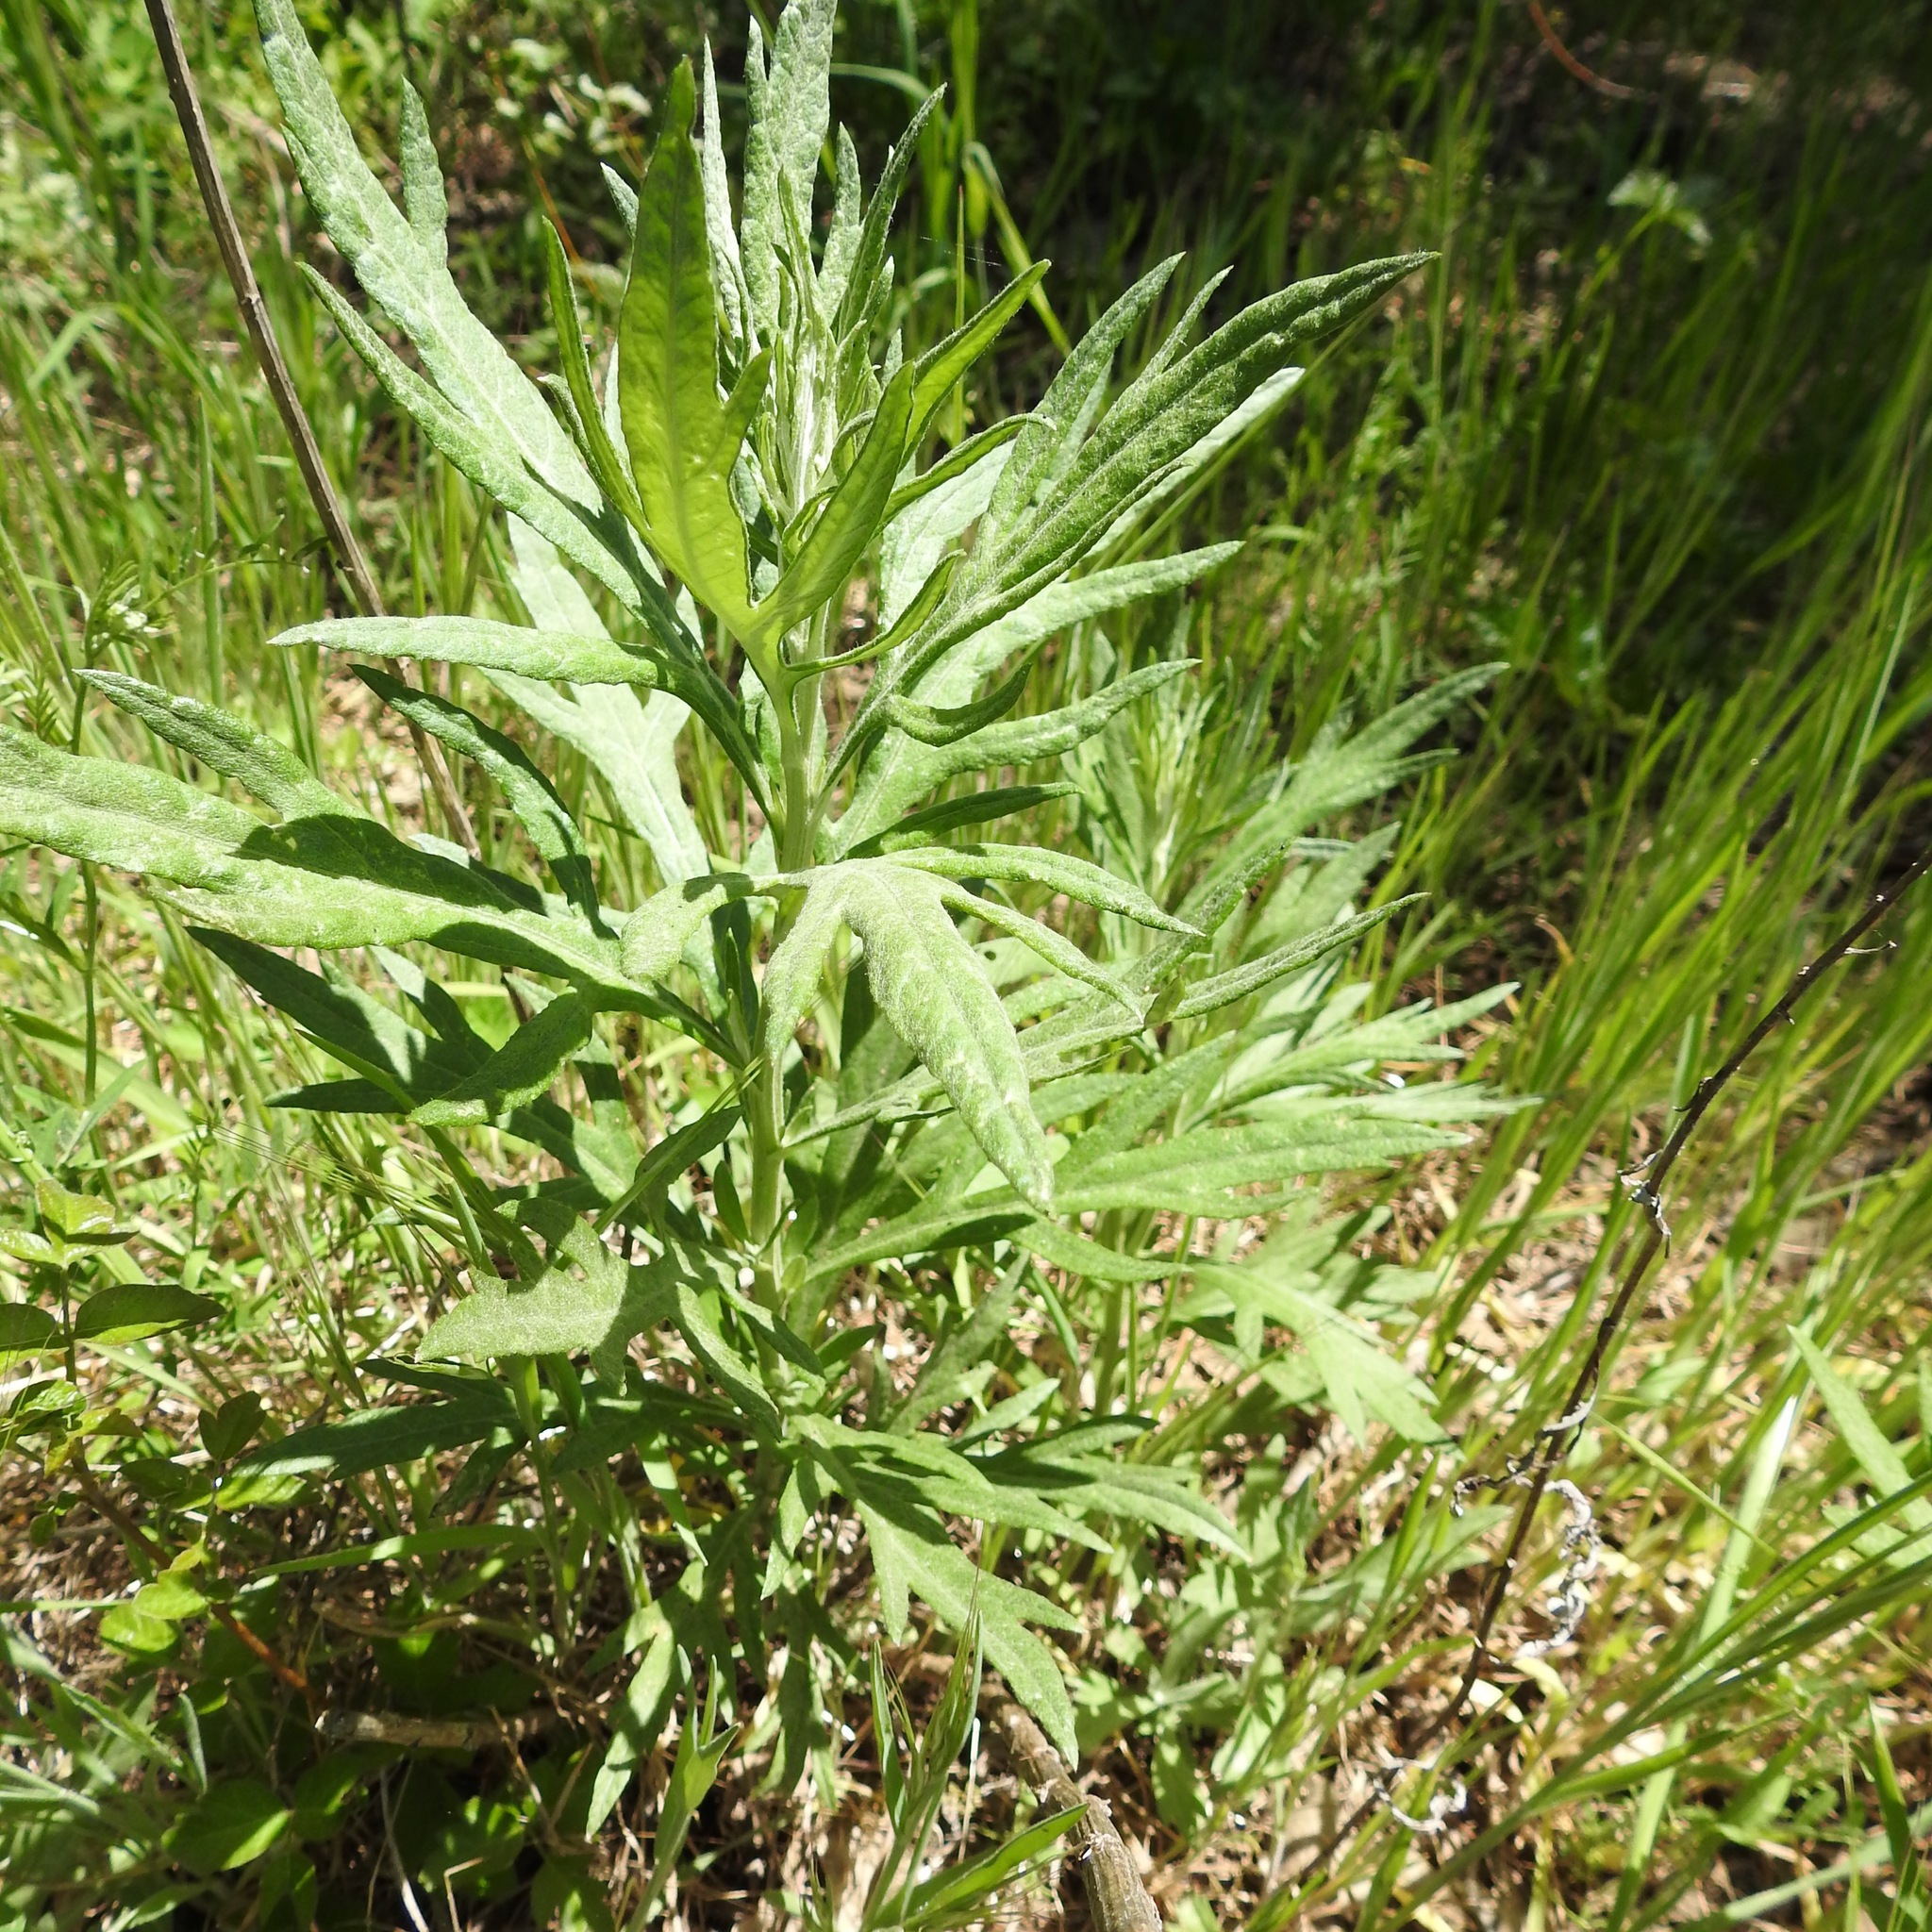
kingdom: Plantae
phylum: Tracheophyta
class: Magnoliopsida
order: Asterales
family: Asteraceae
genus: Artemisia
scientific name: Artemisia douglasiana
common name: Northwest mugwort
